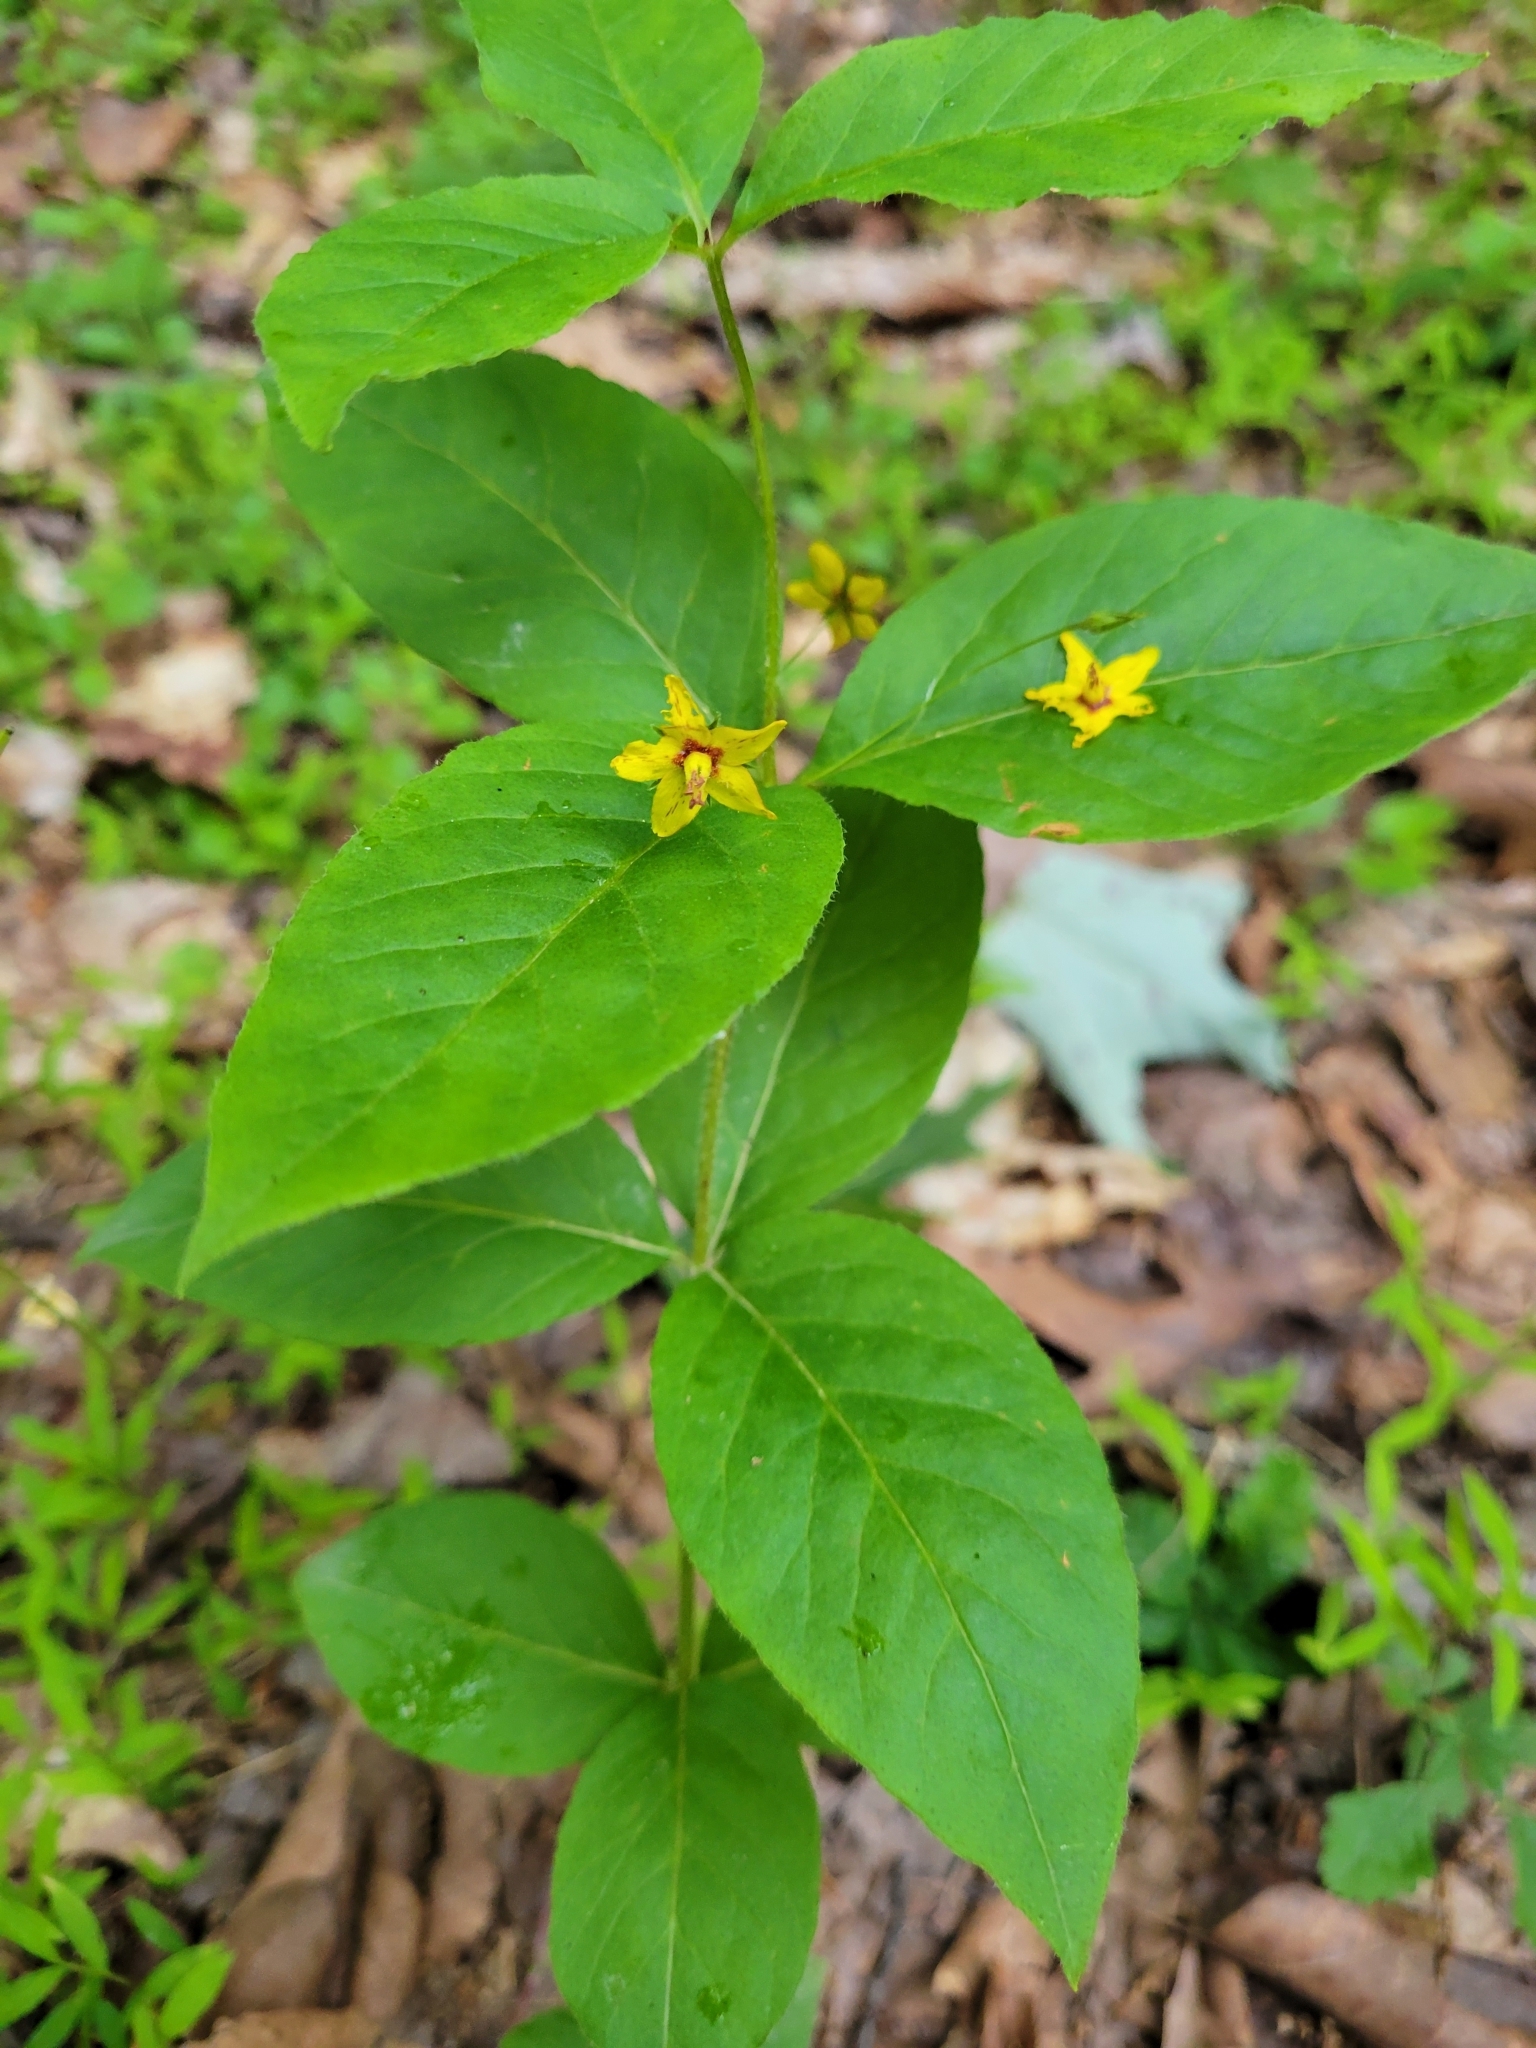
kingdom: Plantae
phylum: Tracheophyta
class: Magnoliopsida
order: Ericales
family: Primulaceae
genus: Lysimachia
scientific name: Lysimachia quadrifolia
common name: Whorled loosestrife
